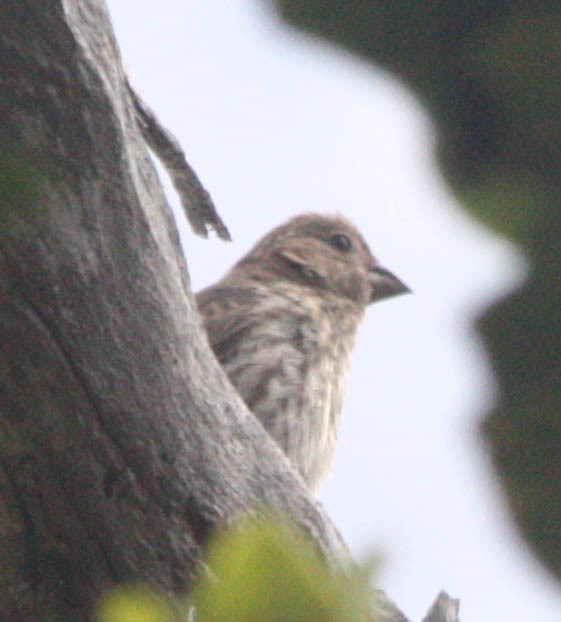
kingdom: Animalia
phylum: Chordata
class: Aves
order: Passeriformes
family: Fringillidae
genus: Haemorhous
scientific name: Haemorhous mexicanus
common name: House finch
